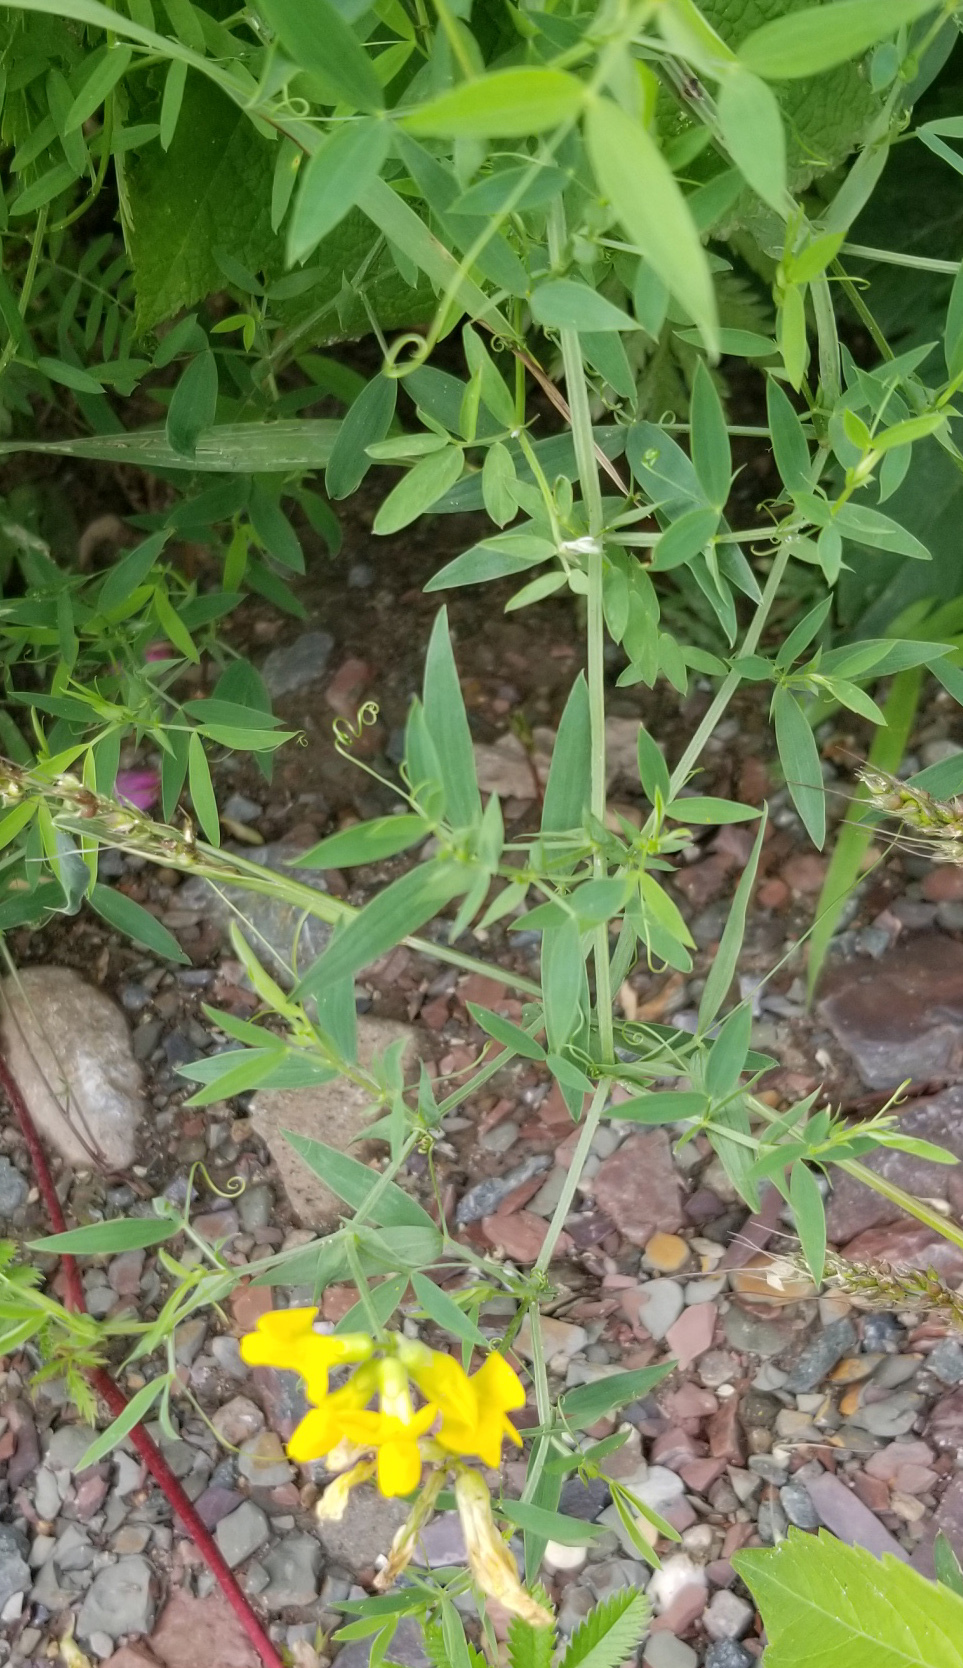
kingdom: Plantae
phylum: Tracheophyta
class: Magnoliopsida
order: Fabales
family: Fabaceae
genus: Lathyrus
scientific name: Lathyrus pratensis
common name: Meadow vetchling
